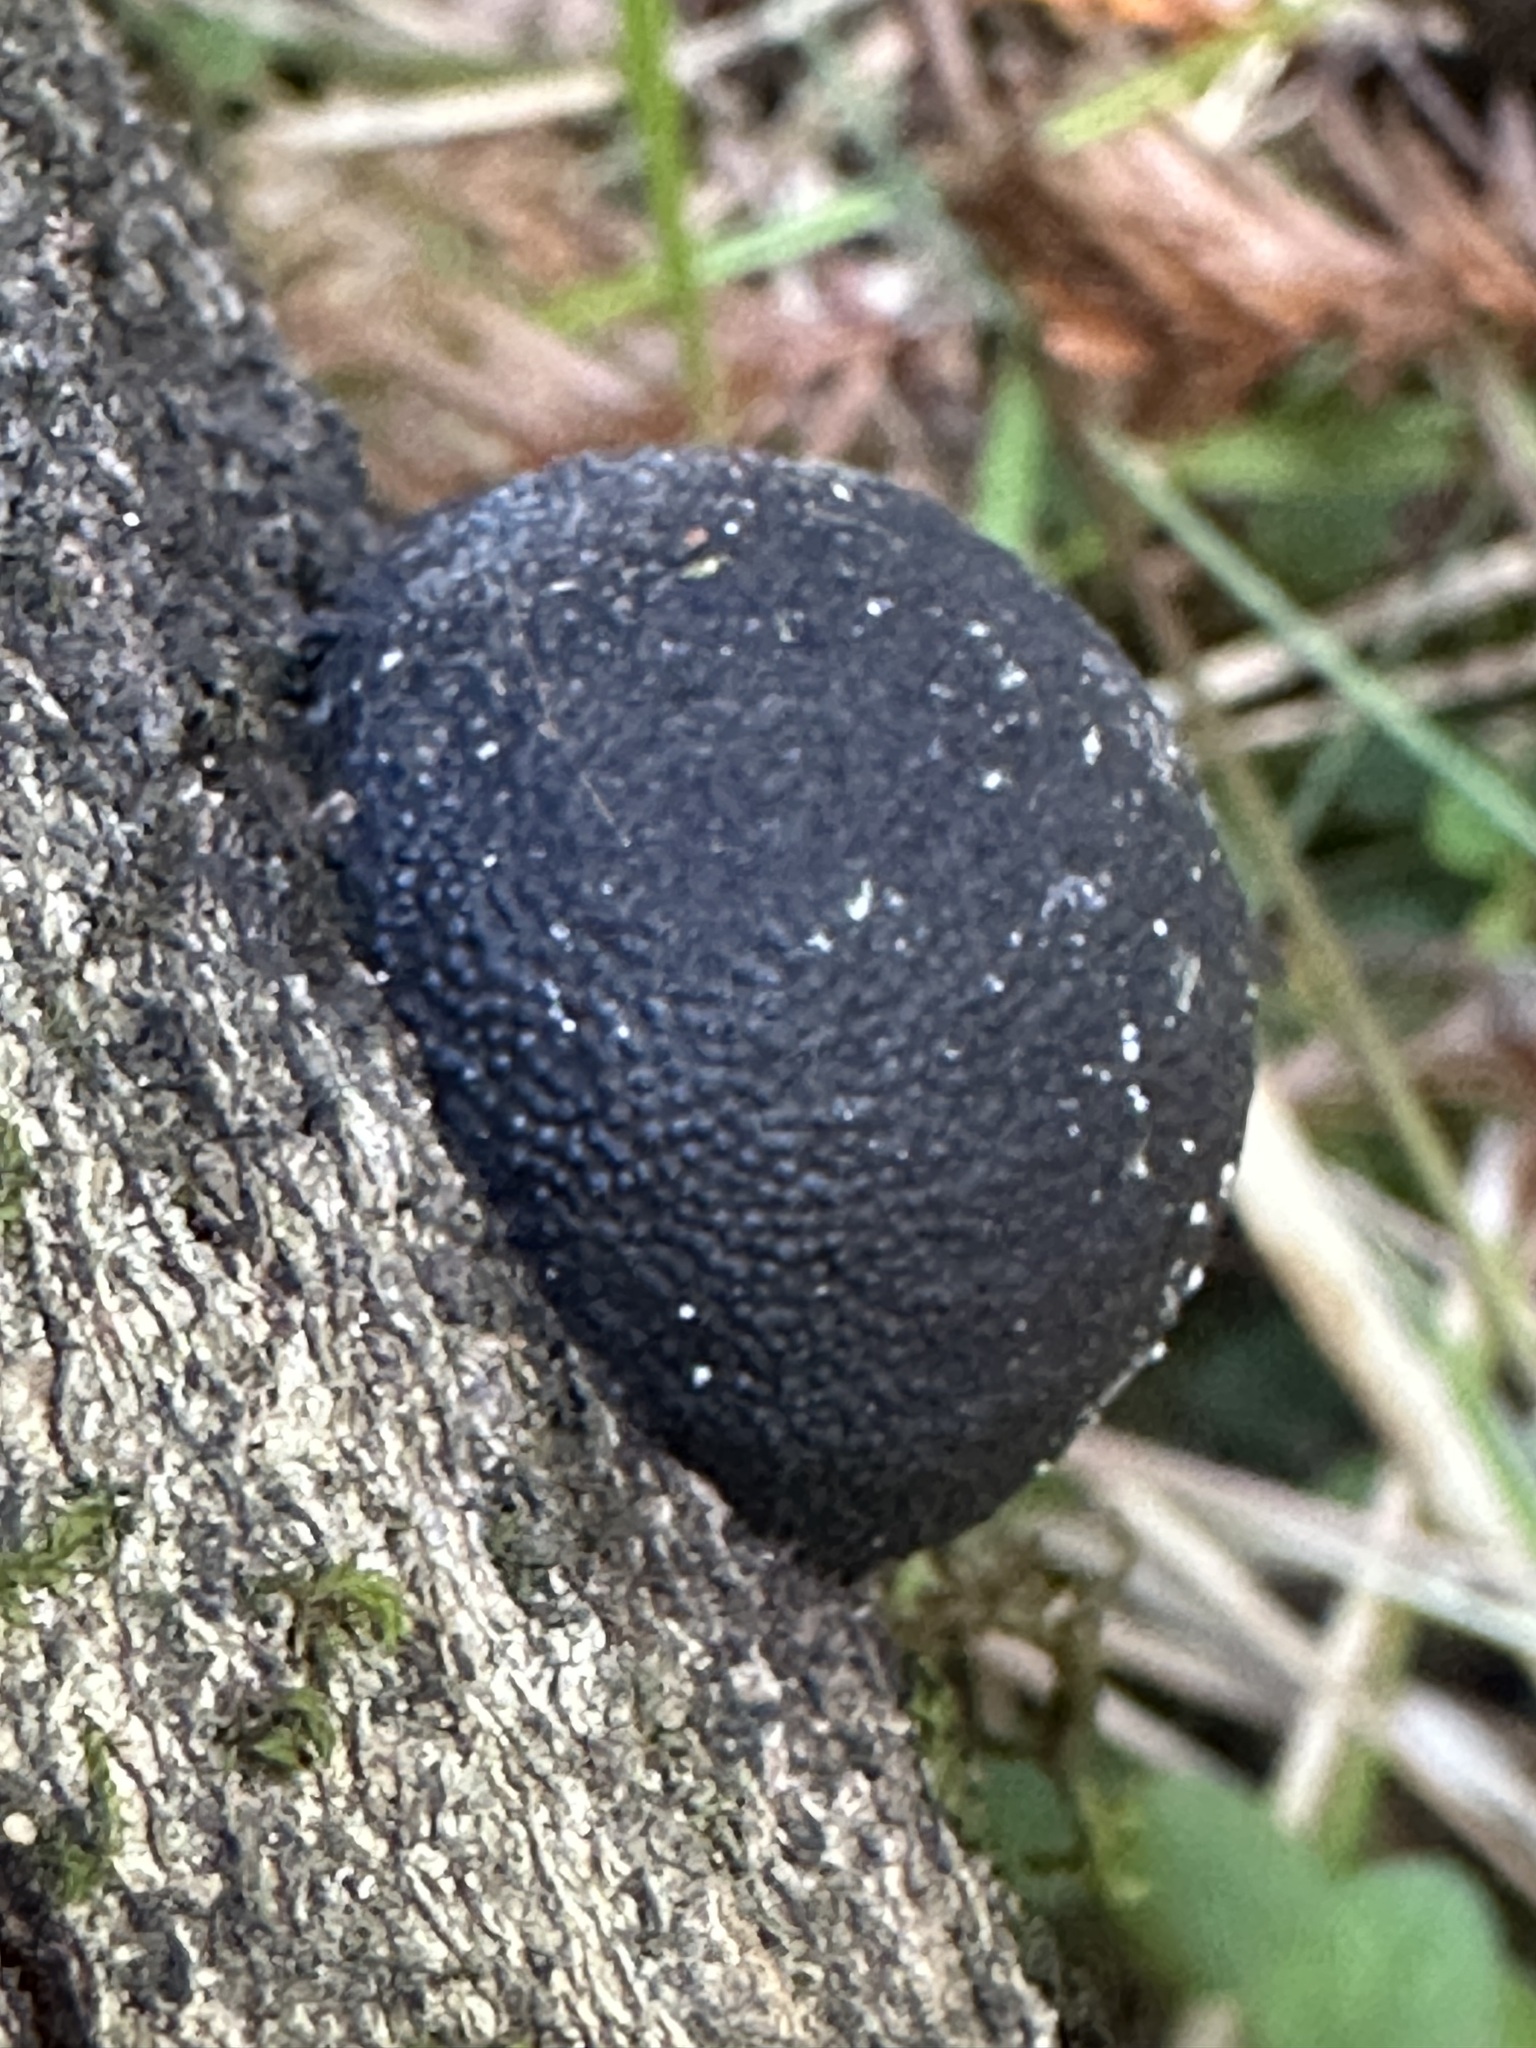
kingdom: Fungi
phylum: Ascomycota
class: Sordariomycetes
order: Xylariales
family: Hypoxylaceae
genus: Annulohypoxylon
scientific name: Annulohypoxylon thouarsianum
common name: Cramp balls
